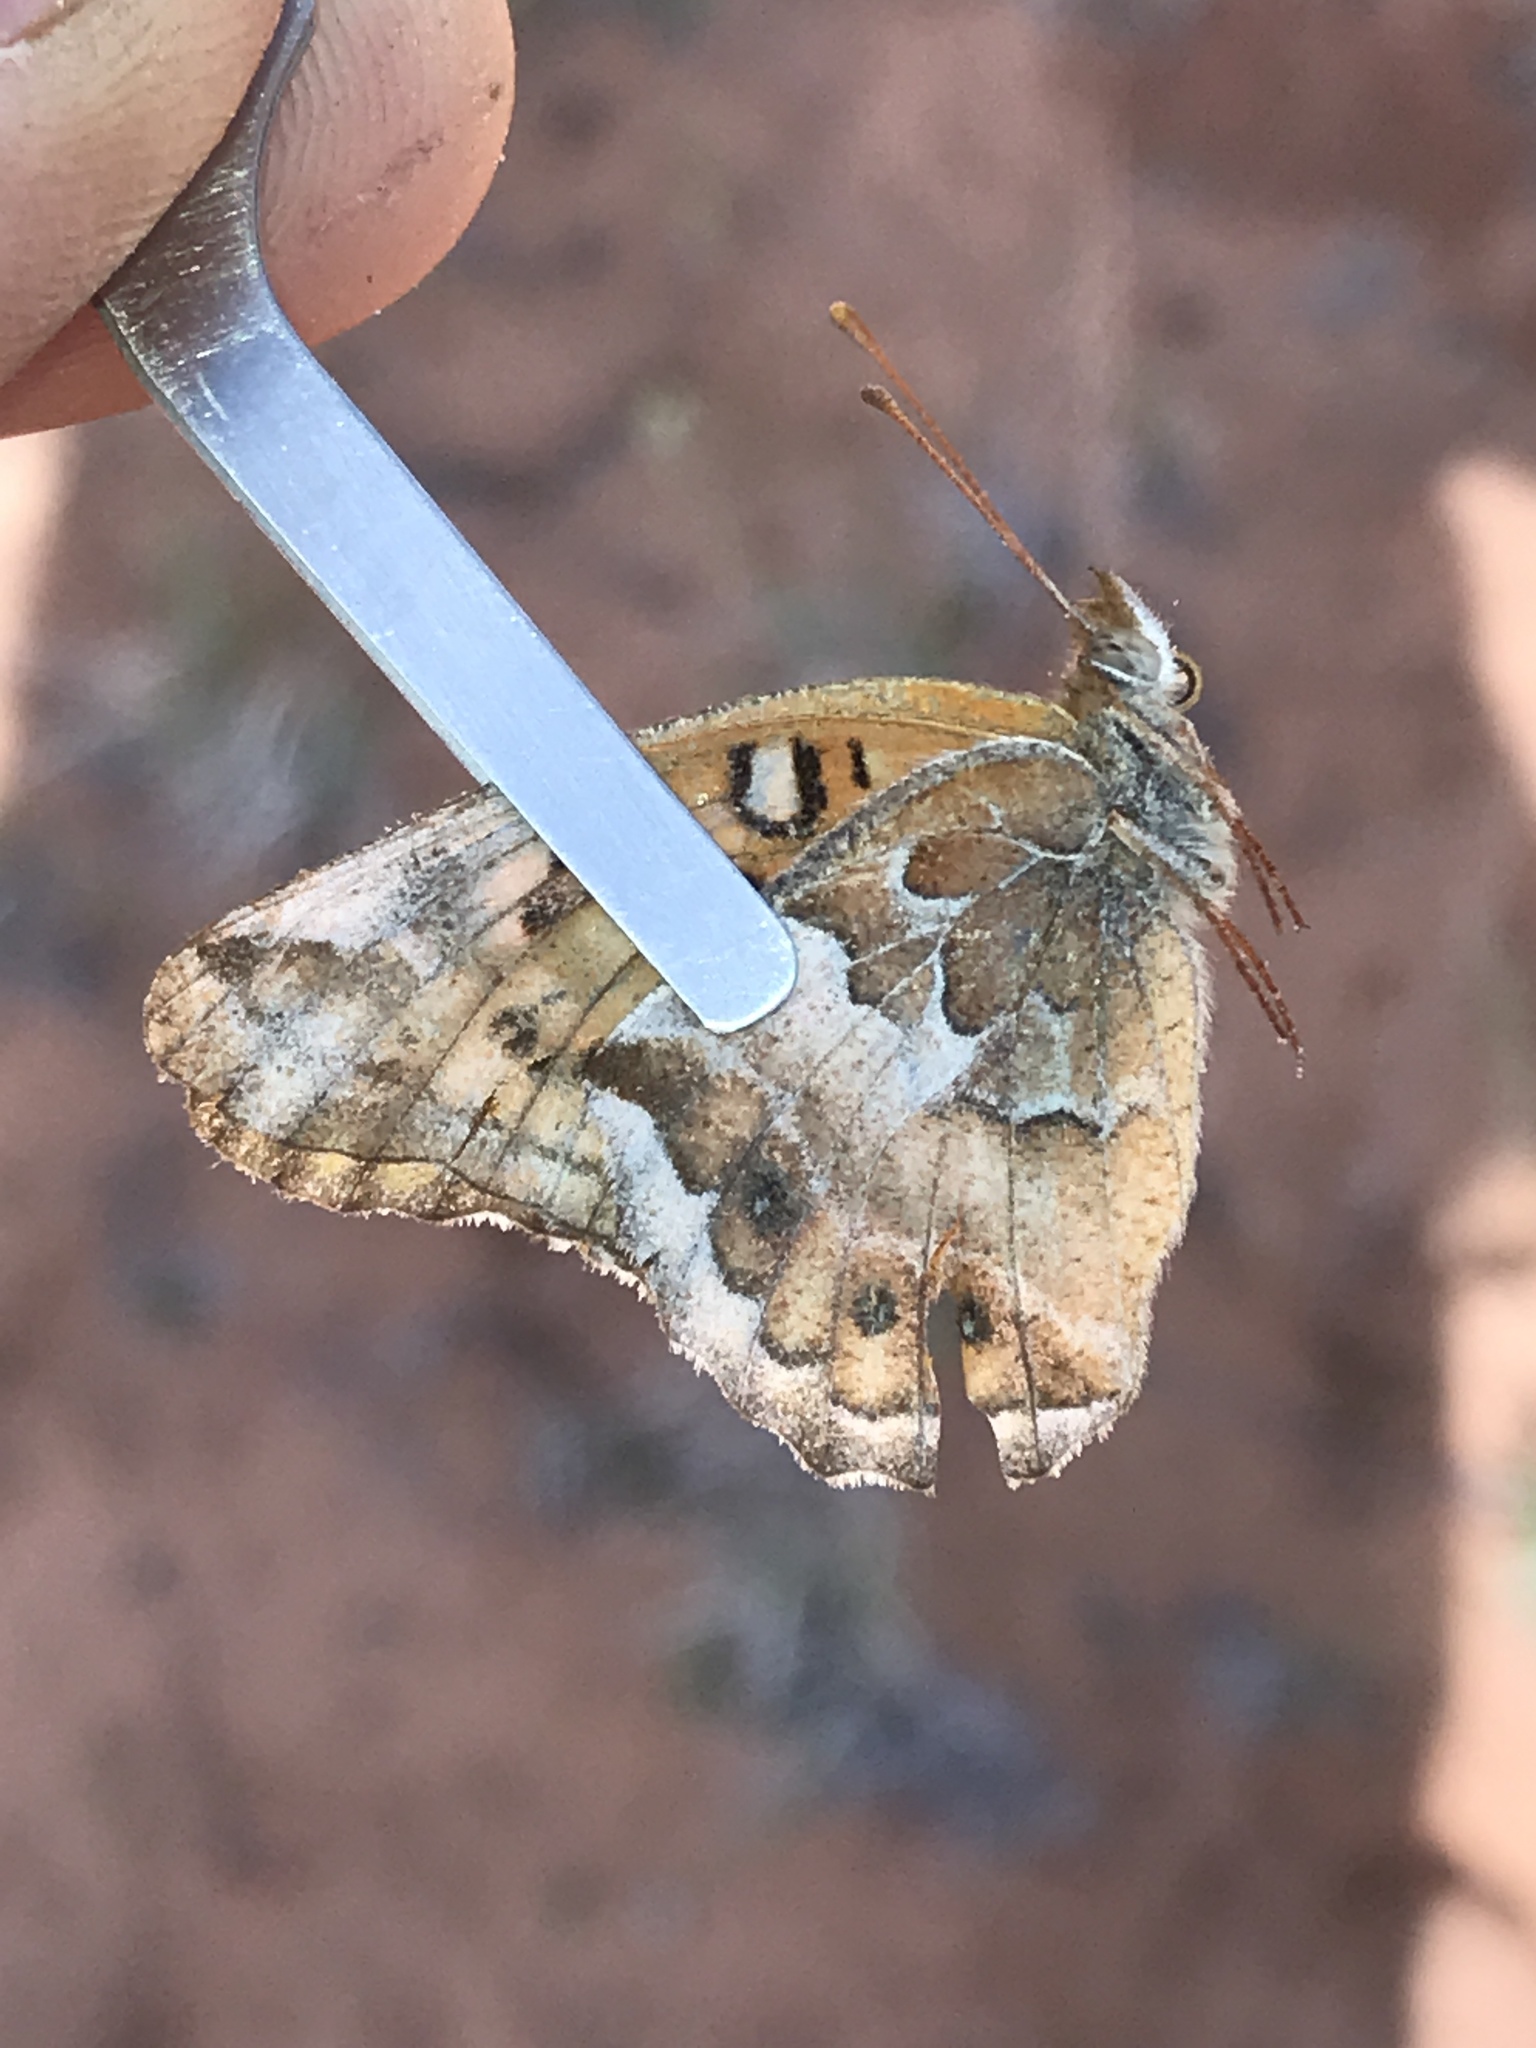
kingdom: Animalia
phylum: Arthropoda
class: Insecta
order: Lepidoptera
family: Nymphalidae
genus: Euptoieta
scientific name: Euptoieta claudia
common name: Variegated fritillary
